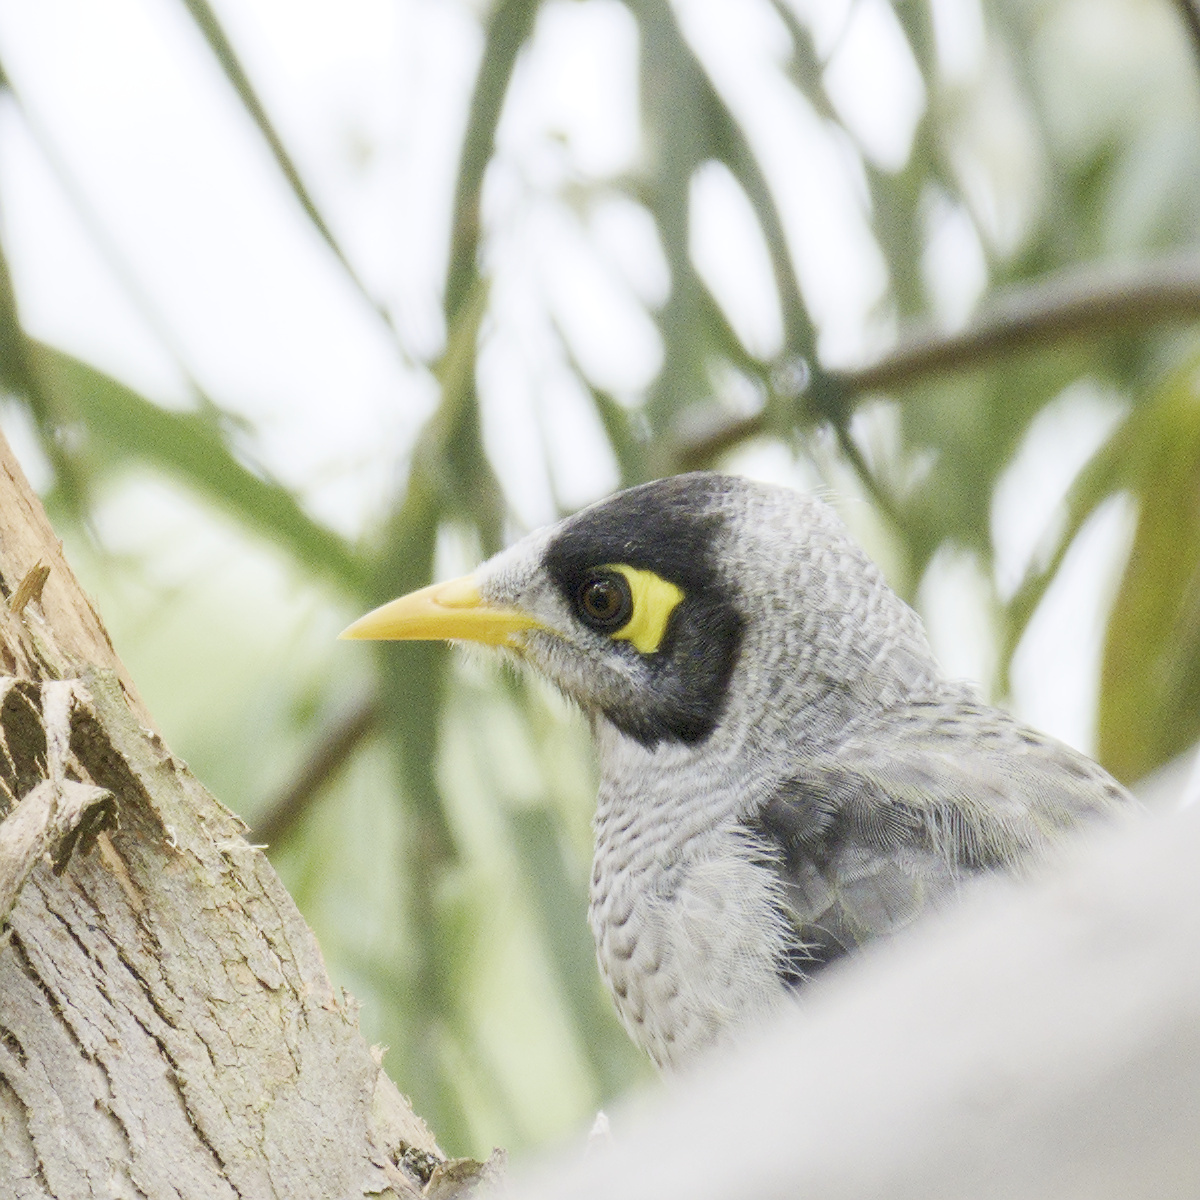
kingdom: Animalia
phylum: Chordata
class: Aves
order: Passeriformes
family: Meliphagidae
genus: Manorina
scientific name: Manorina melanocephala
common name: Noisy miner
